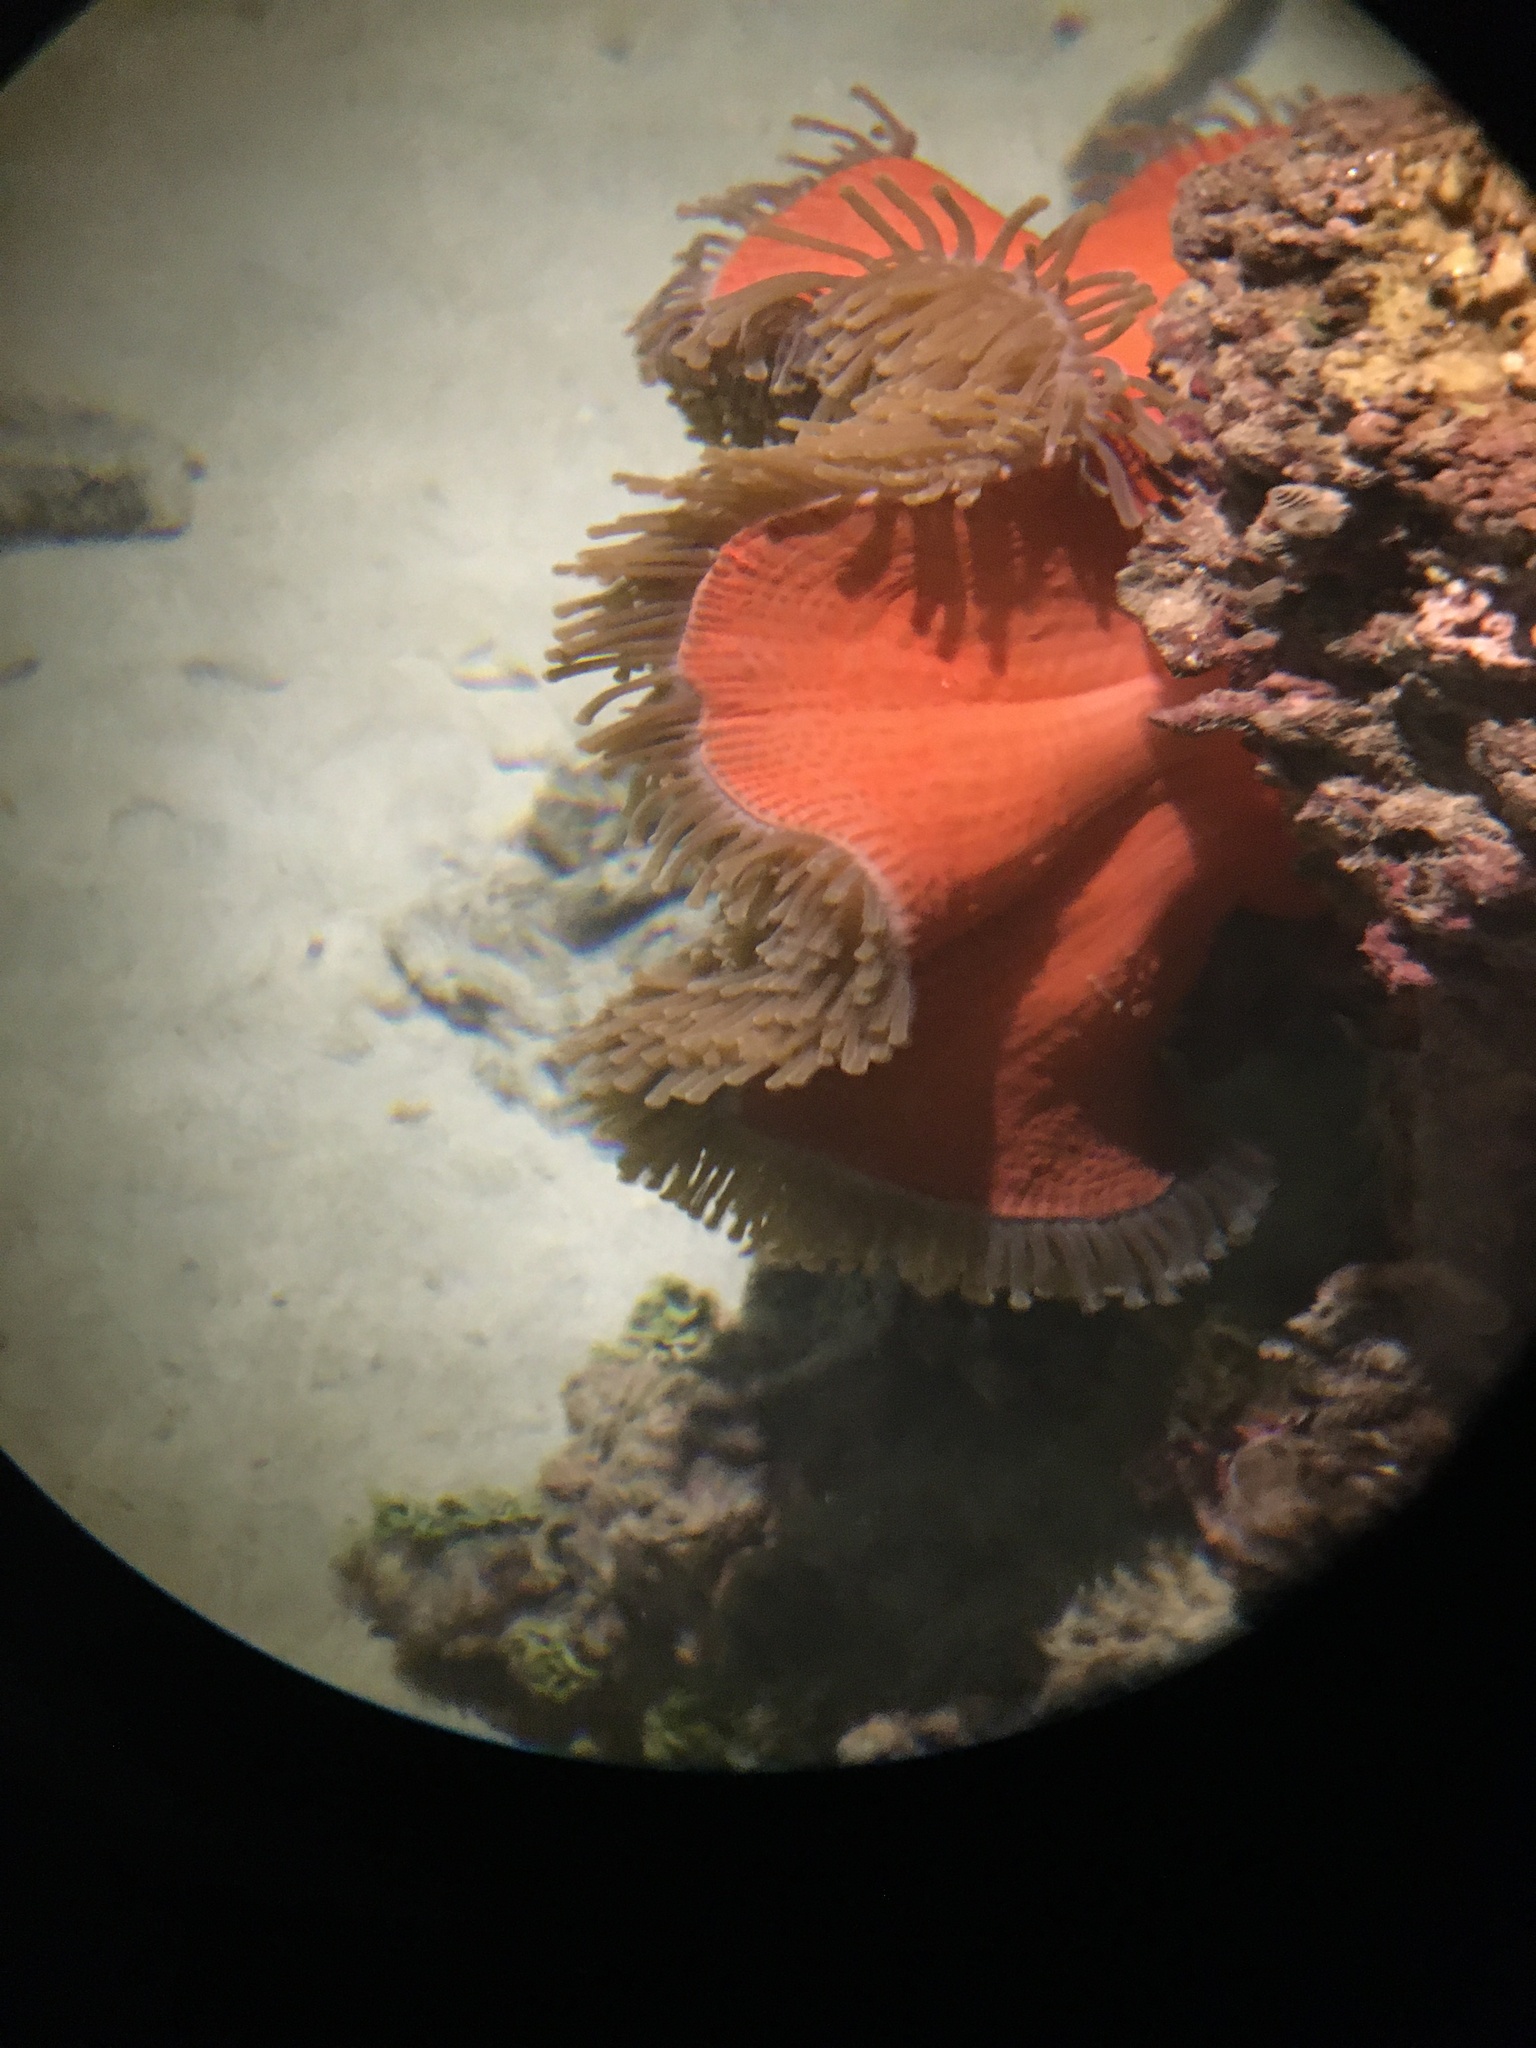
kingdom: Animalia
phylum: Cnidaria
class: Anthozoa
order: Actiniaria
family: Stichodactylidae
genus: Radianthus
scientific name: Radianthus magnifica
